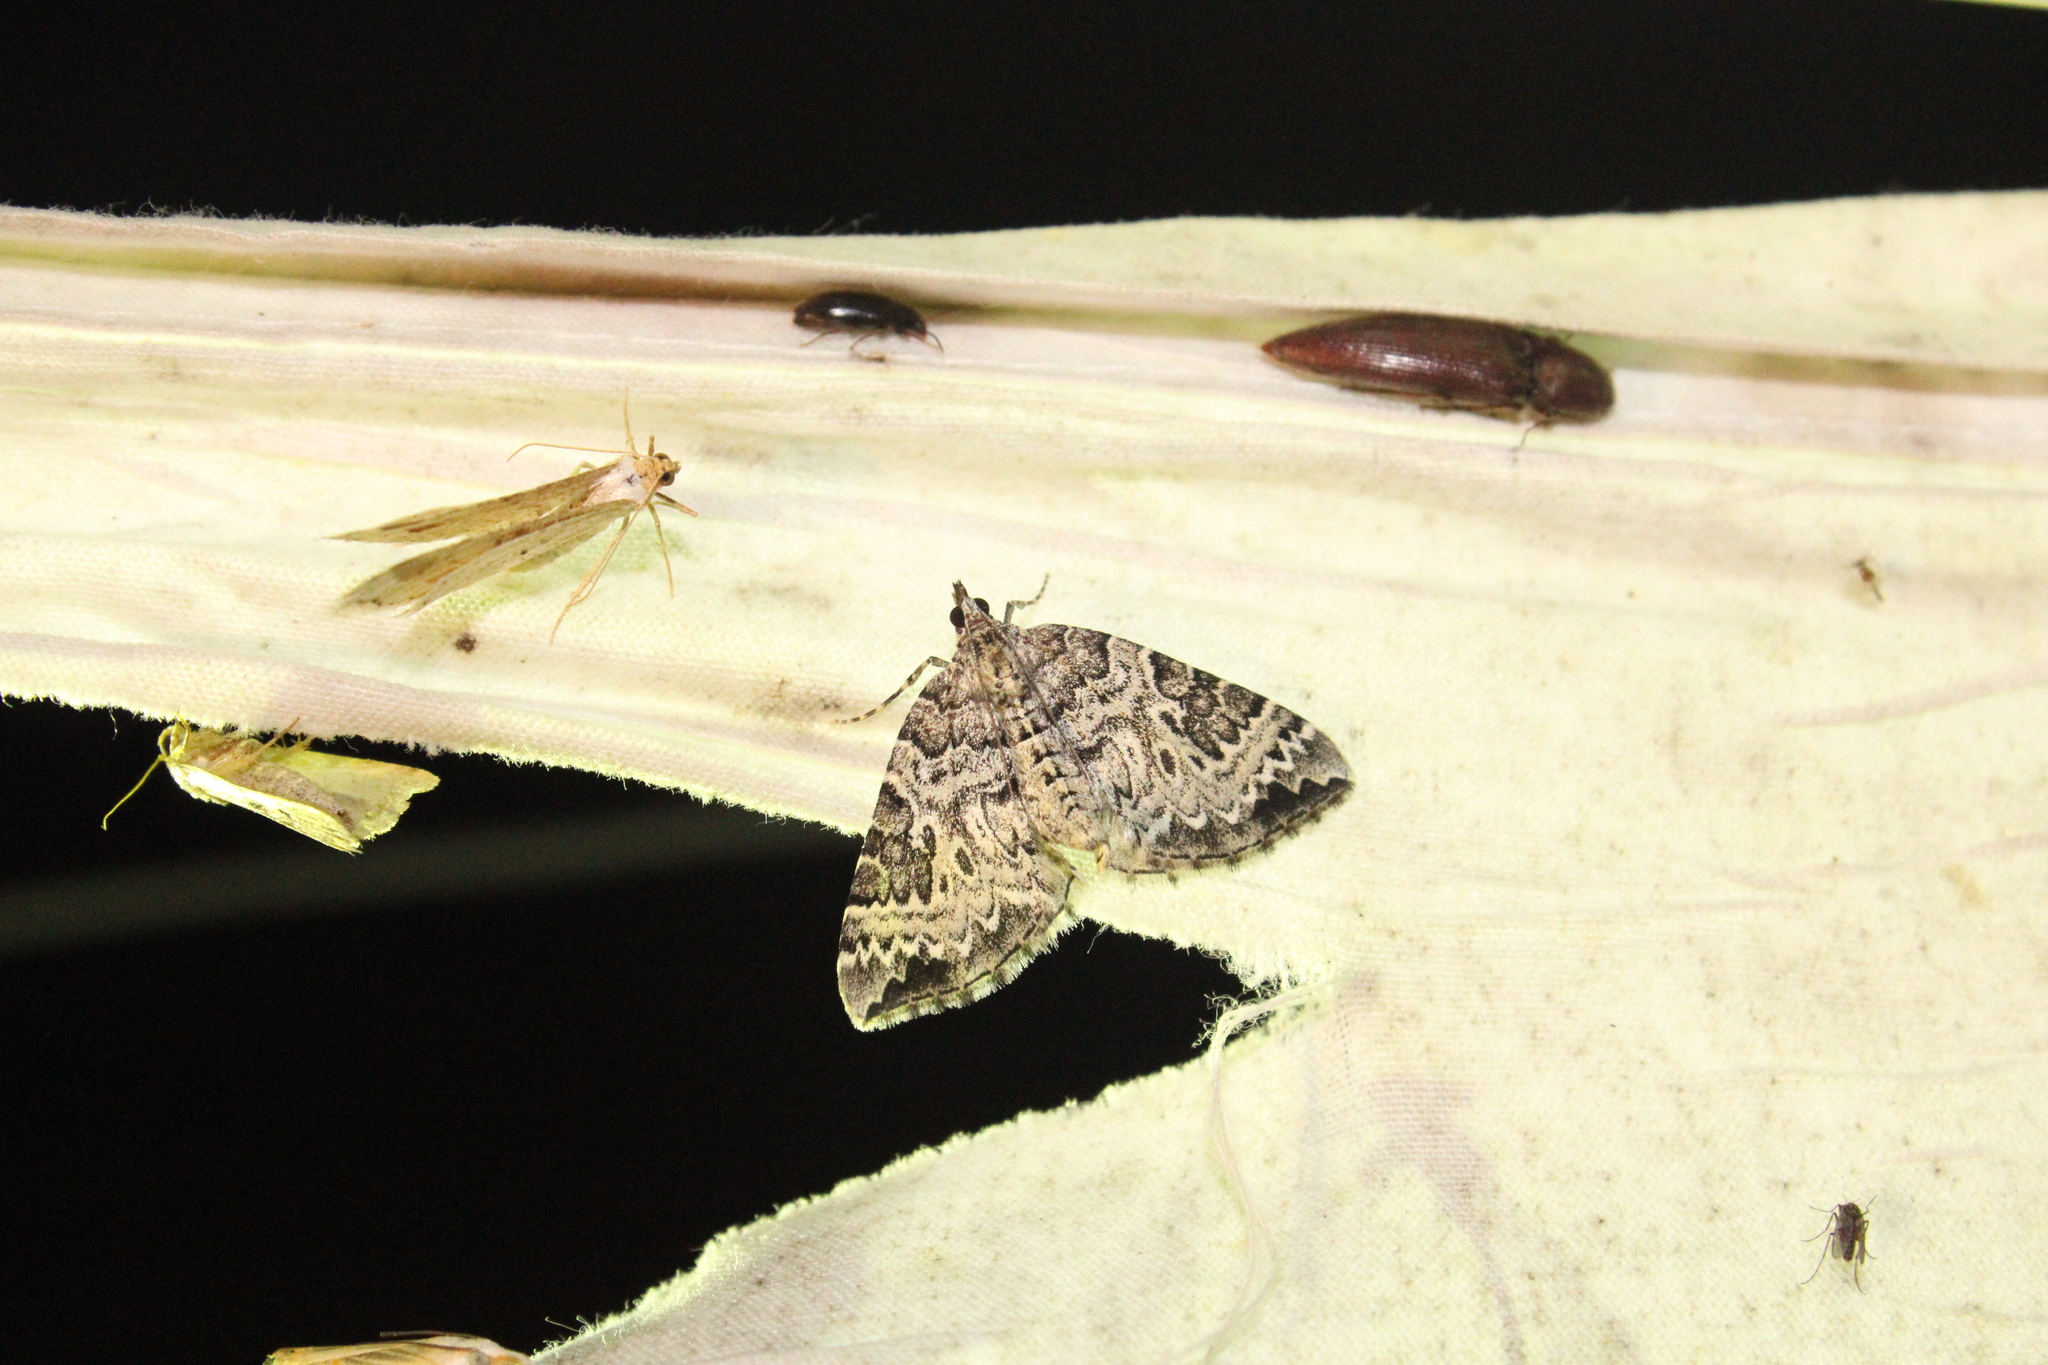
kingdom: Animalia
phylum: Arthropoda
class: Insecta
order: Lepidoptera
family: Geometridae
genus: Eulithis
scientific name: Eulithis explanata
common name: White eulithis
